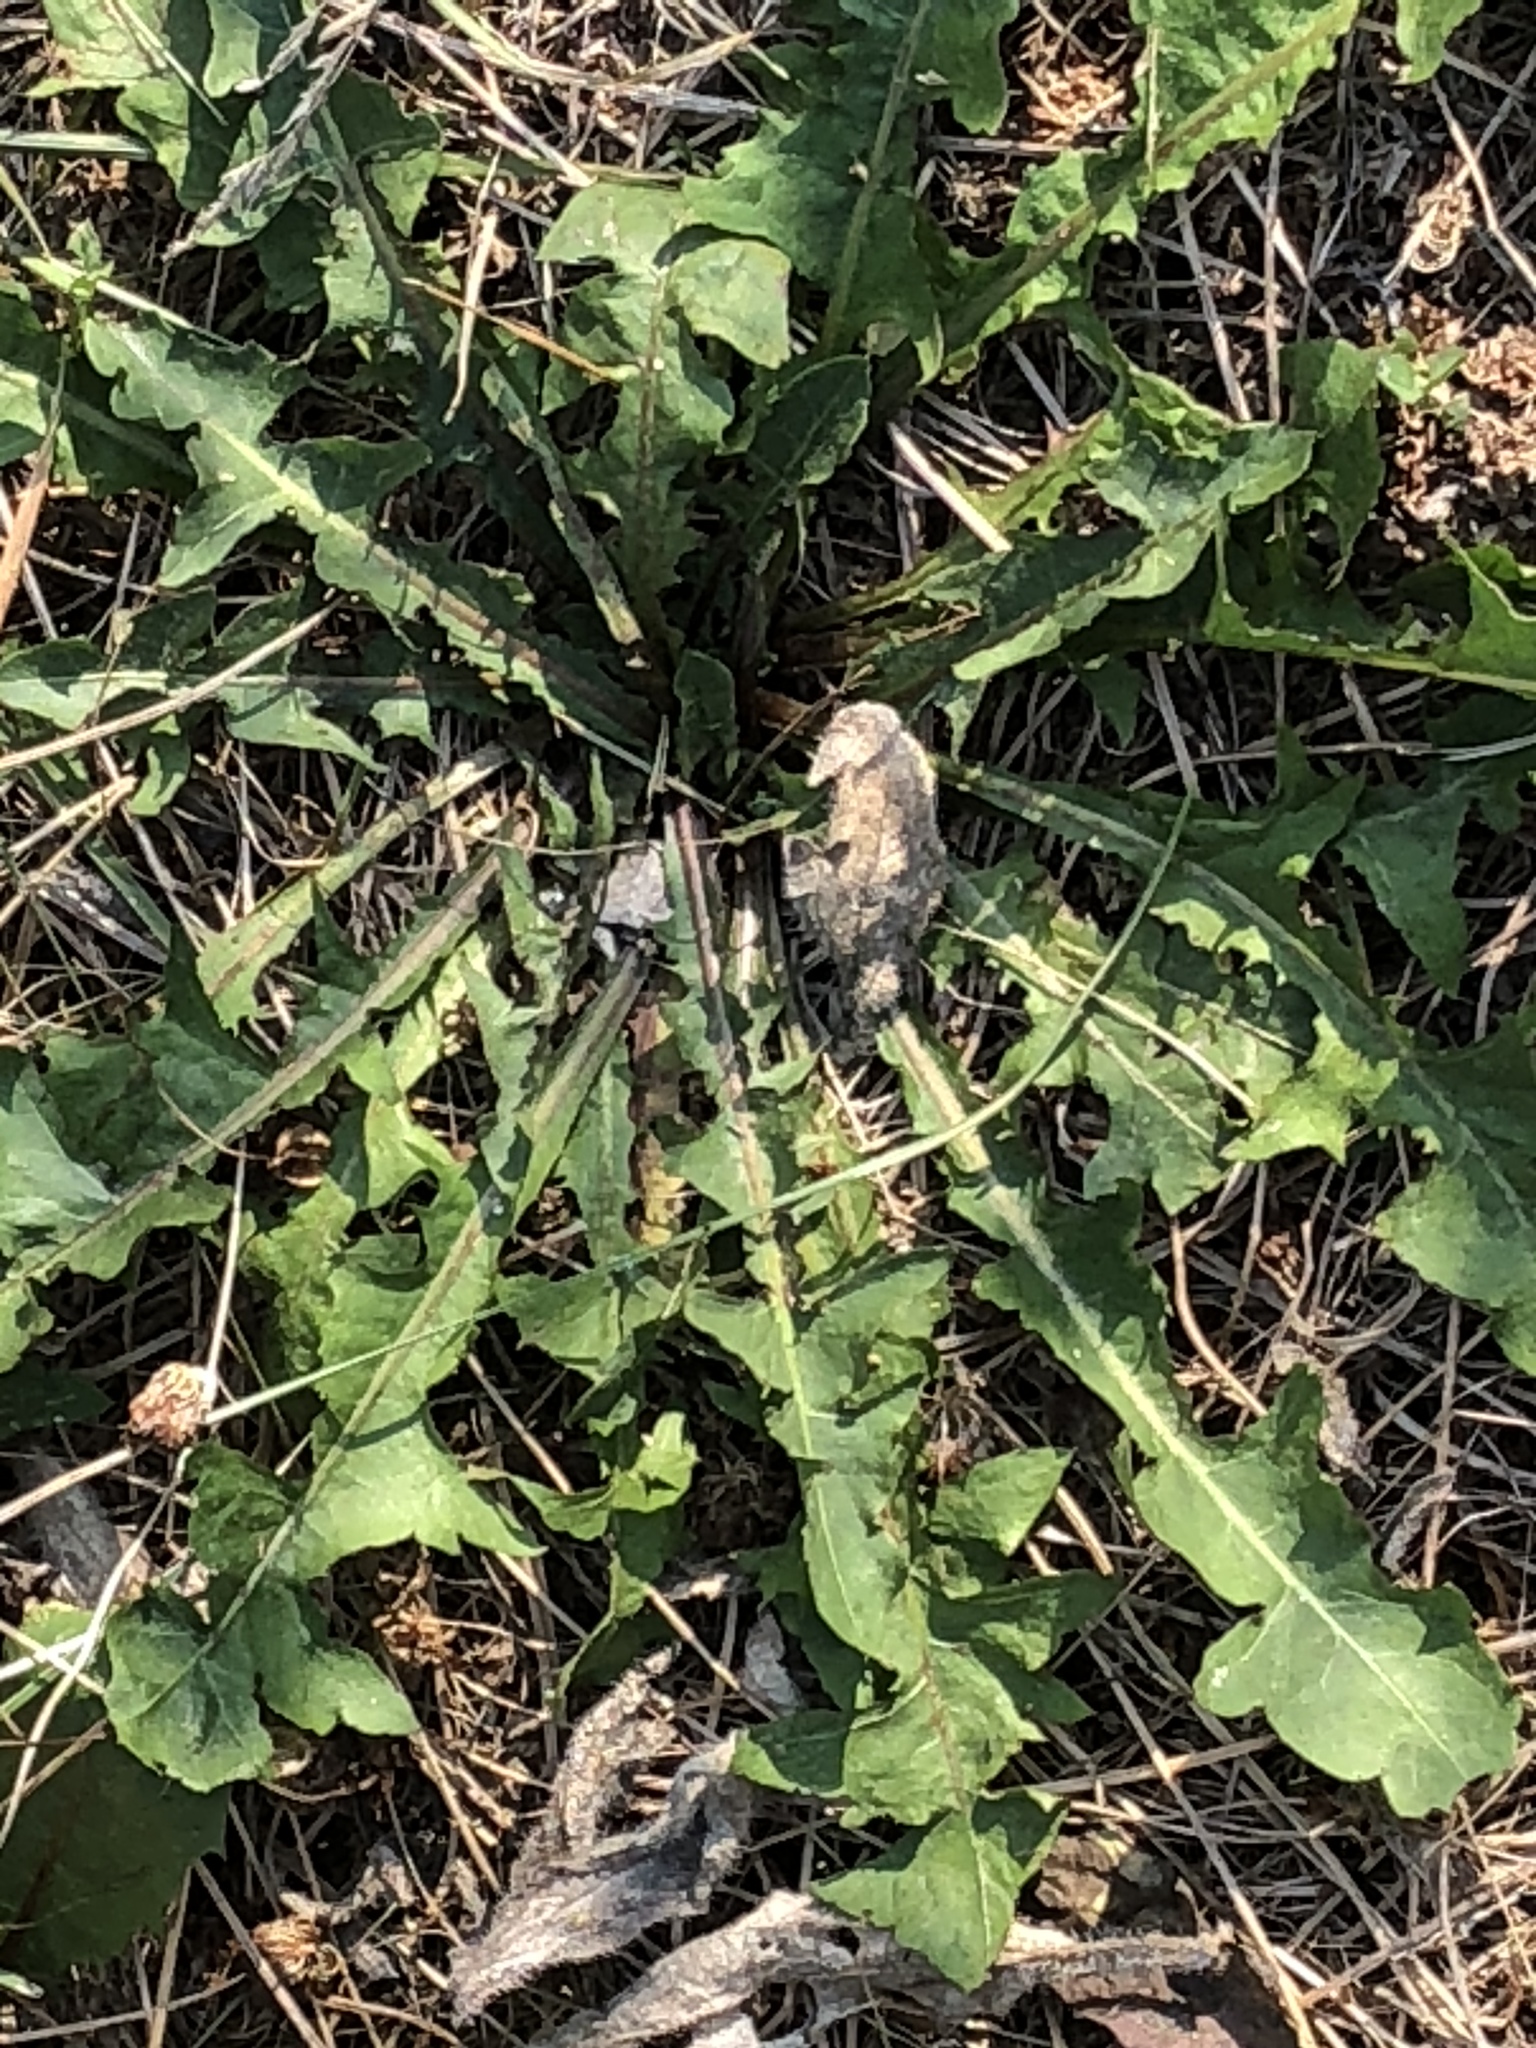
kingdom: Plantae
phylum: Tracheophyta
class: Magnoliopsida
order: Asterales
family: Asteraceae
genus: Taraxacum
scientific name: Taraxacum officinale
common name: Common dandelion
